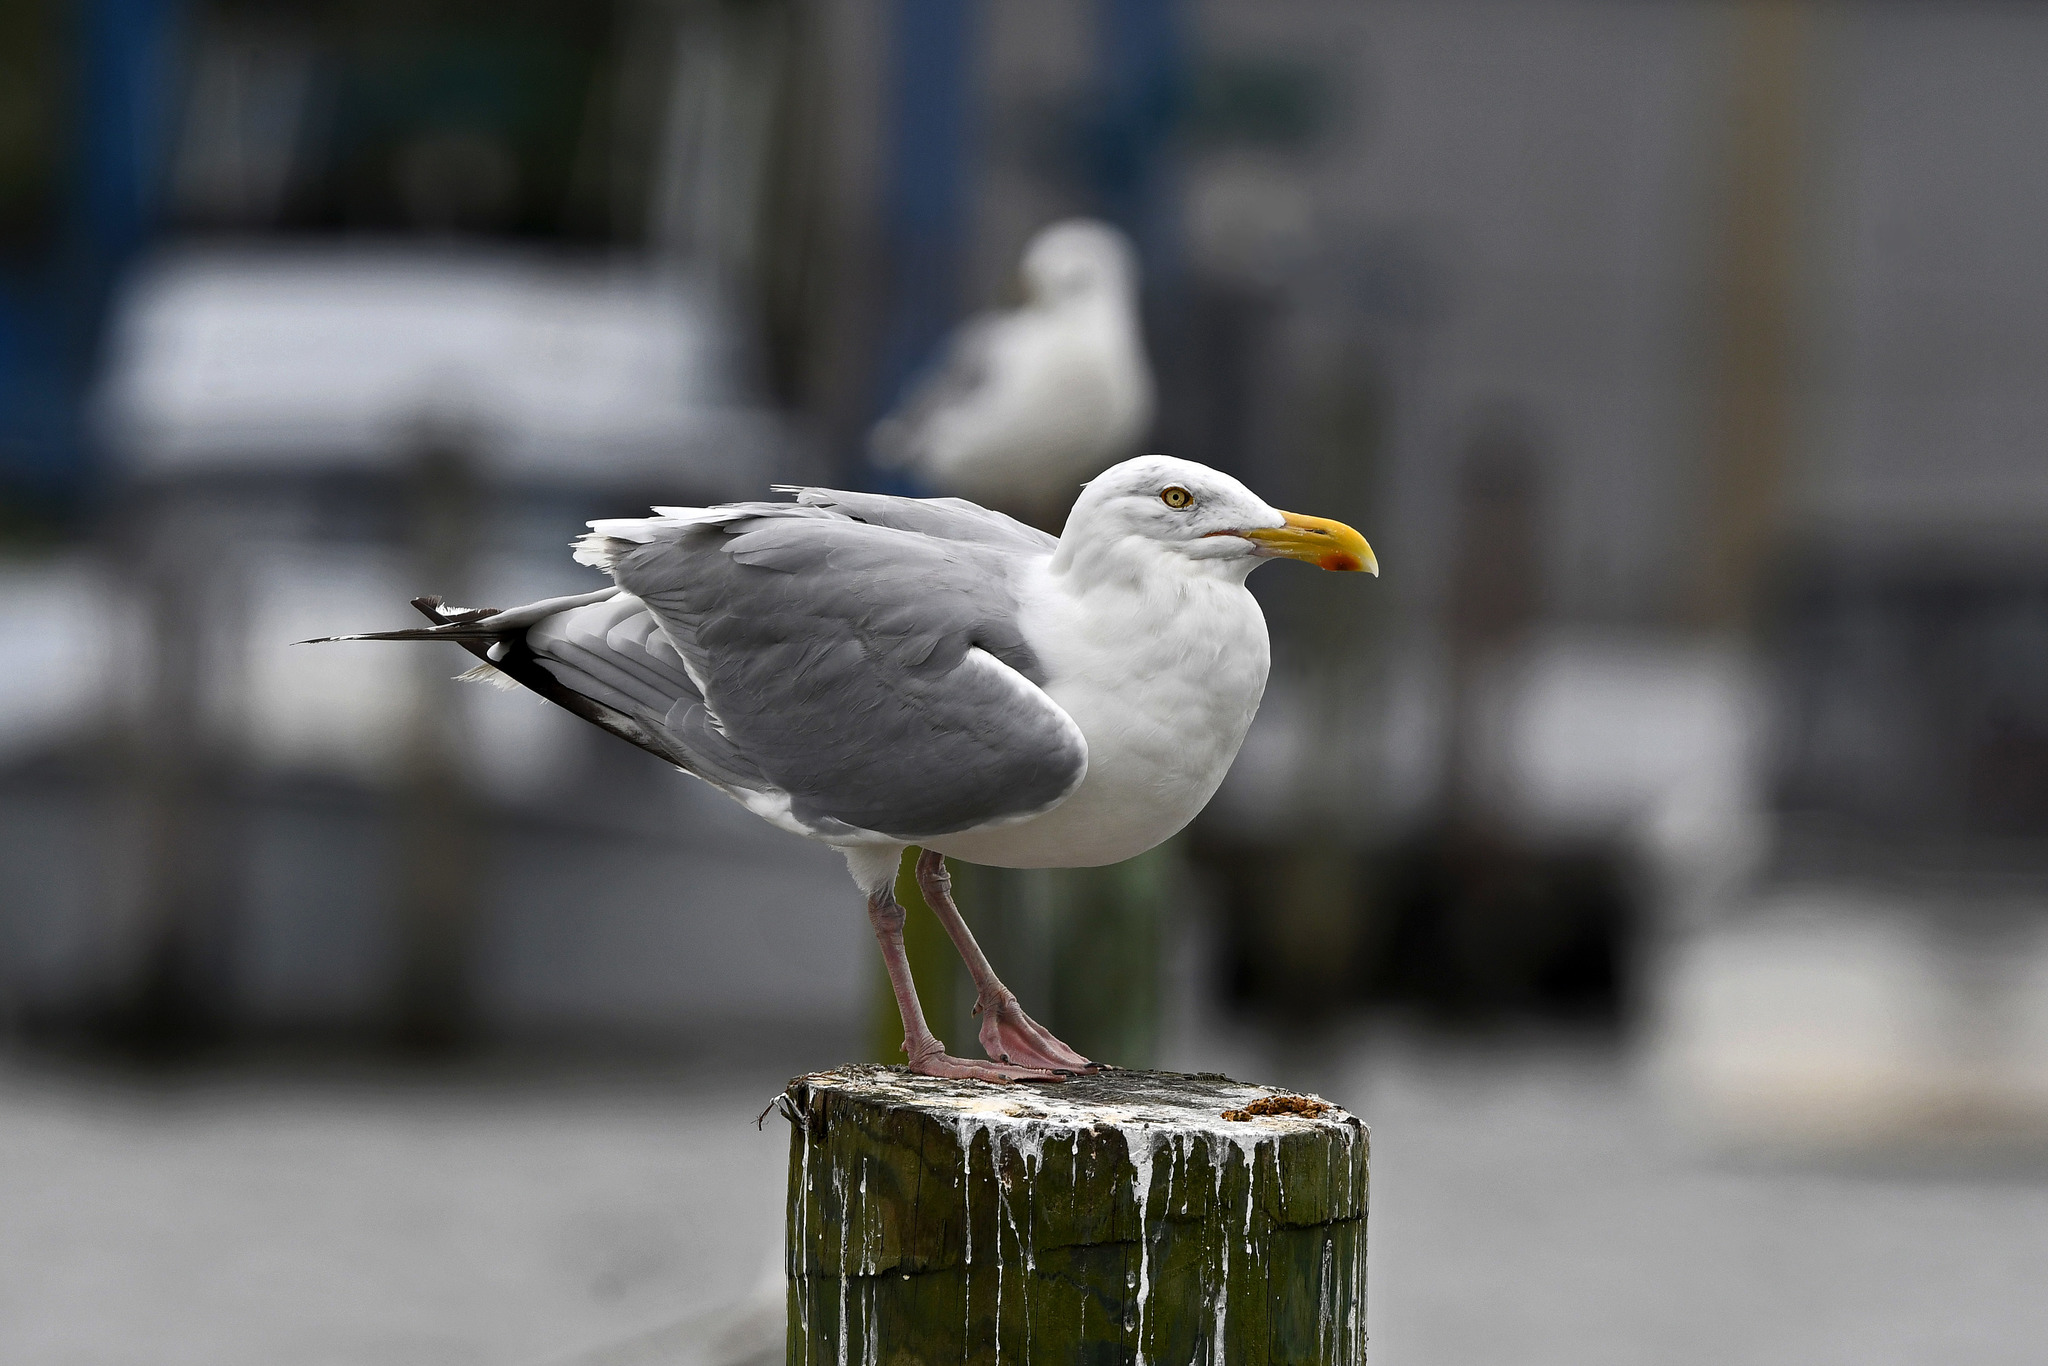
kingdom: Animalia
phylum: Chordata
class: Aves
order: Charadriiformes
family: Laridae
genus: Larus
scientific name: Larus argentatus
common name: Herring gull
